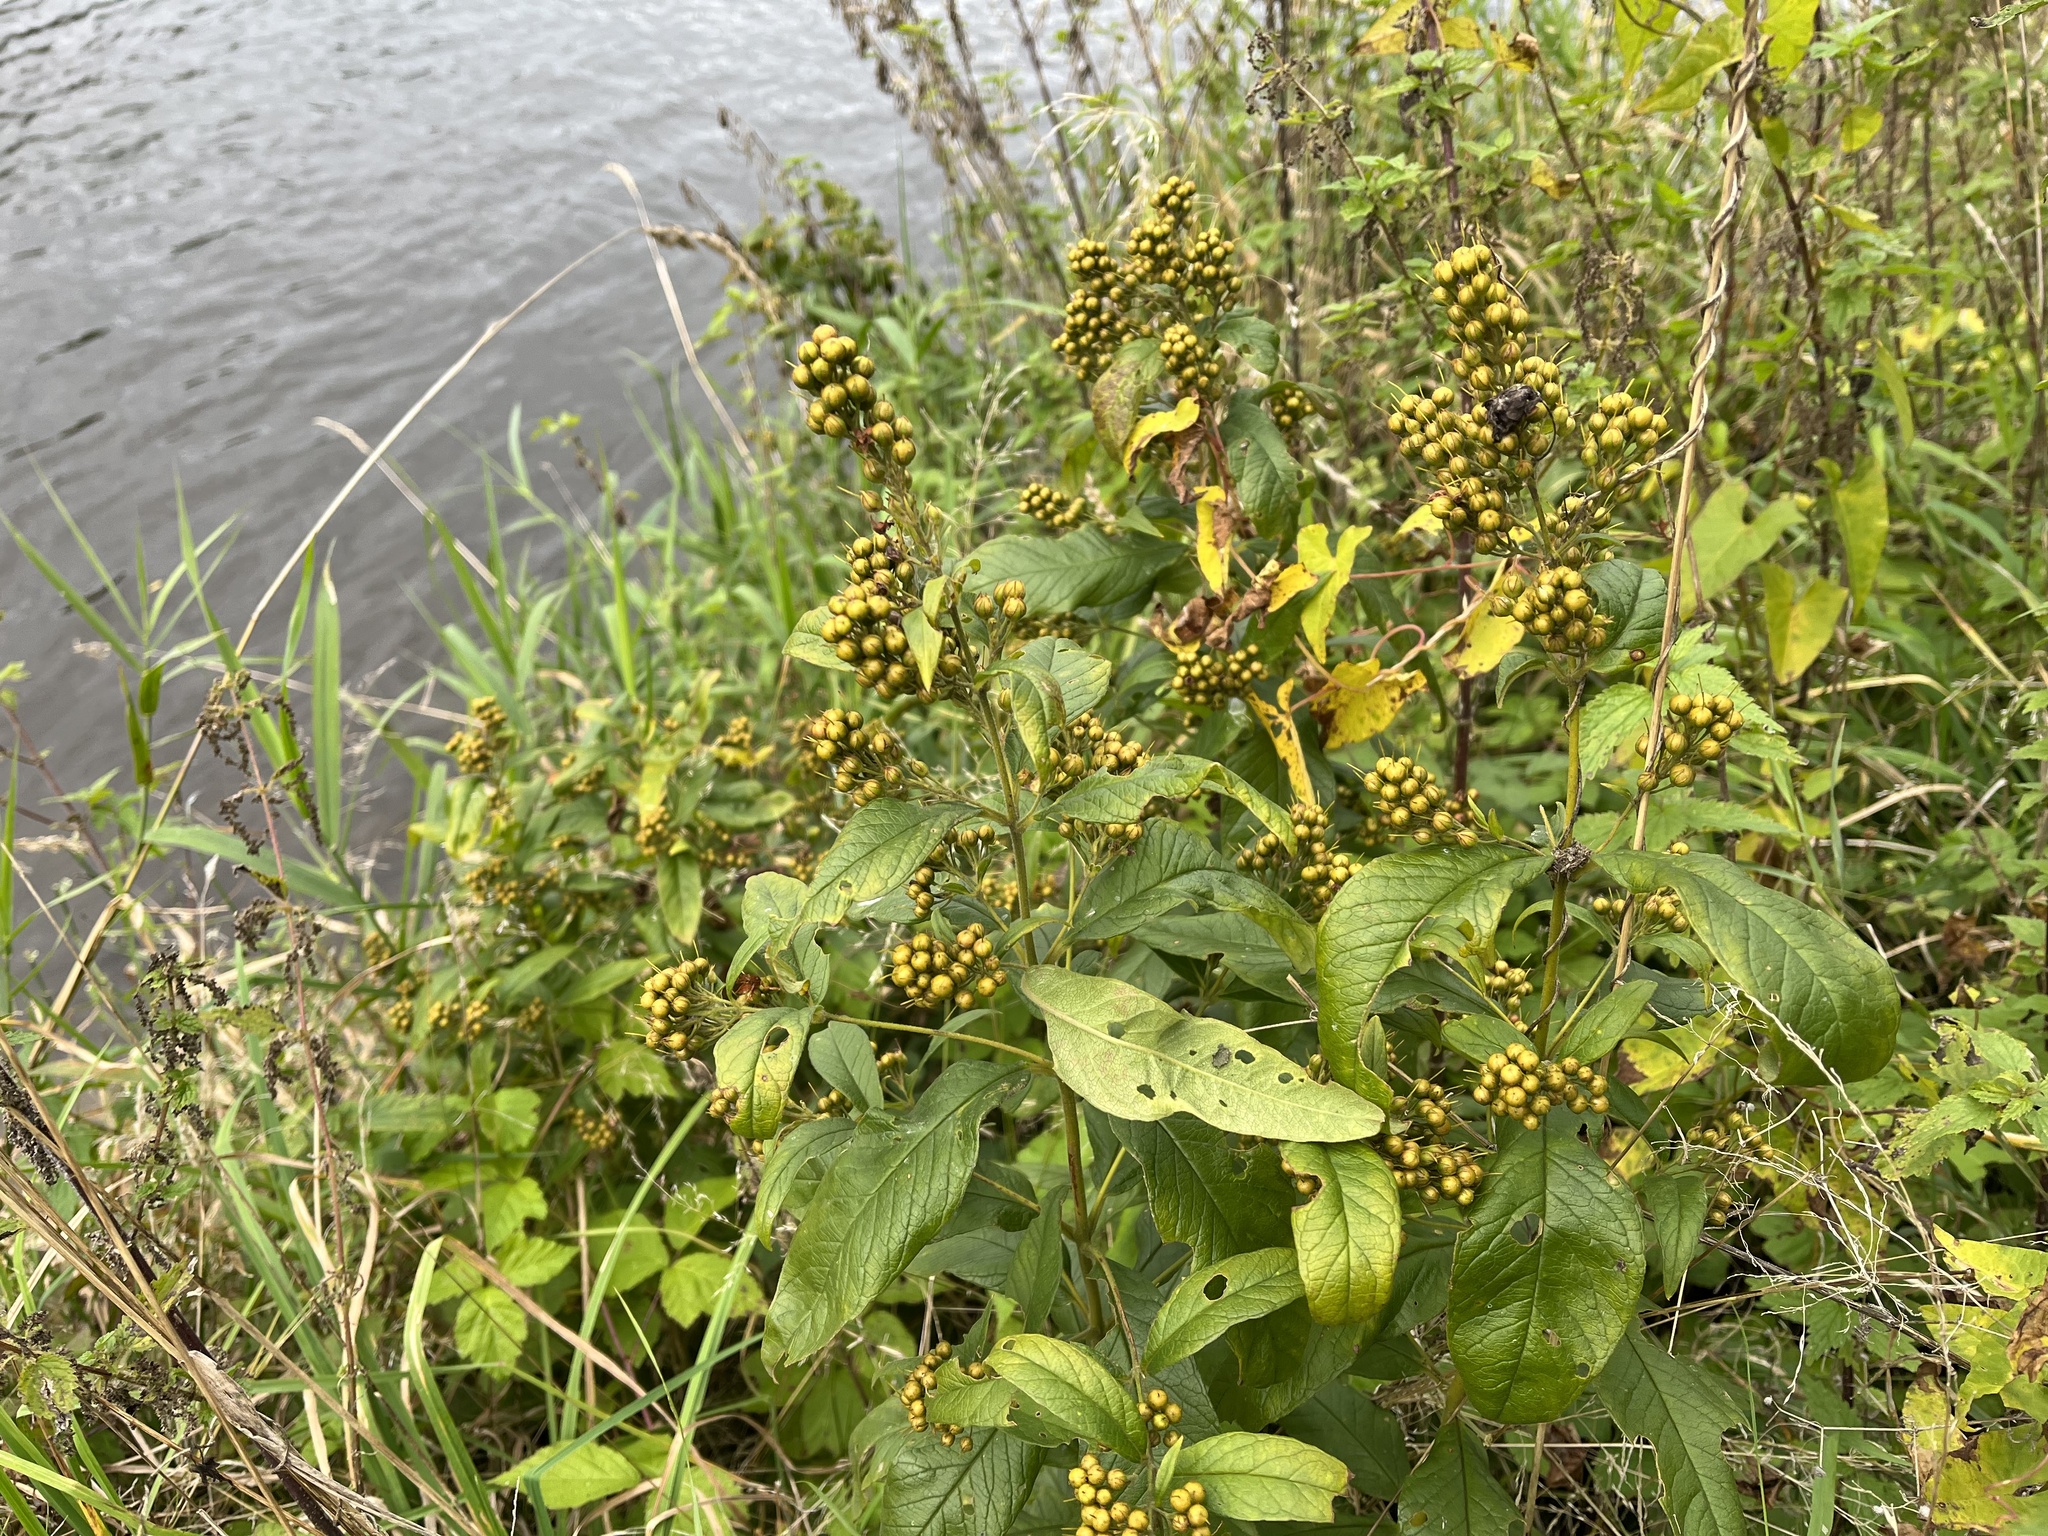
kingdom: Plantae
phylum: Tracheophyta
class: Magnoliopsida
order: Ericales
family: Primulaceae
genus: Lysimachia
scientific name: Lysimachia vulgaris
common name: Yellow loosestrife
